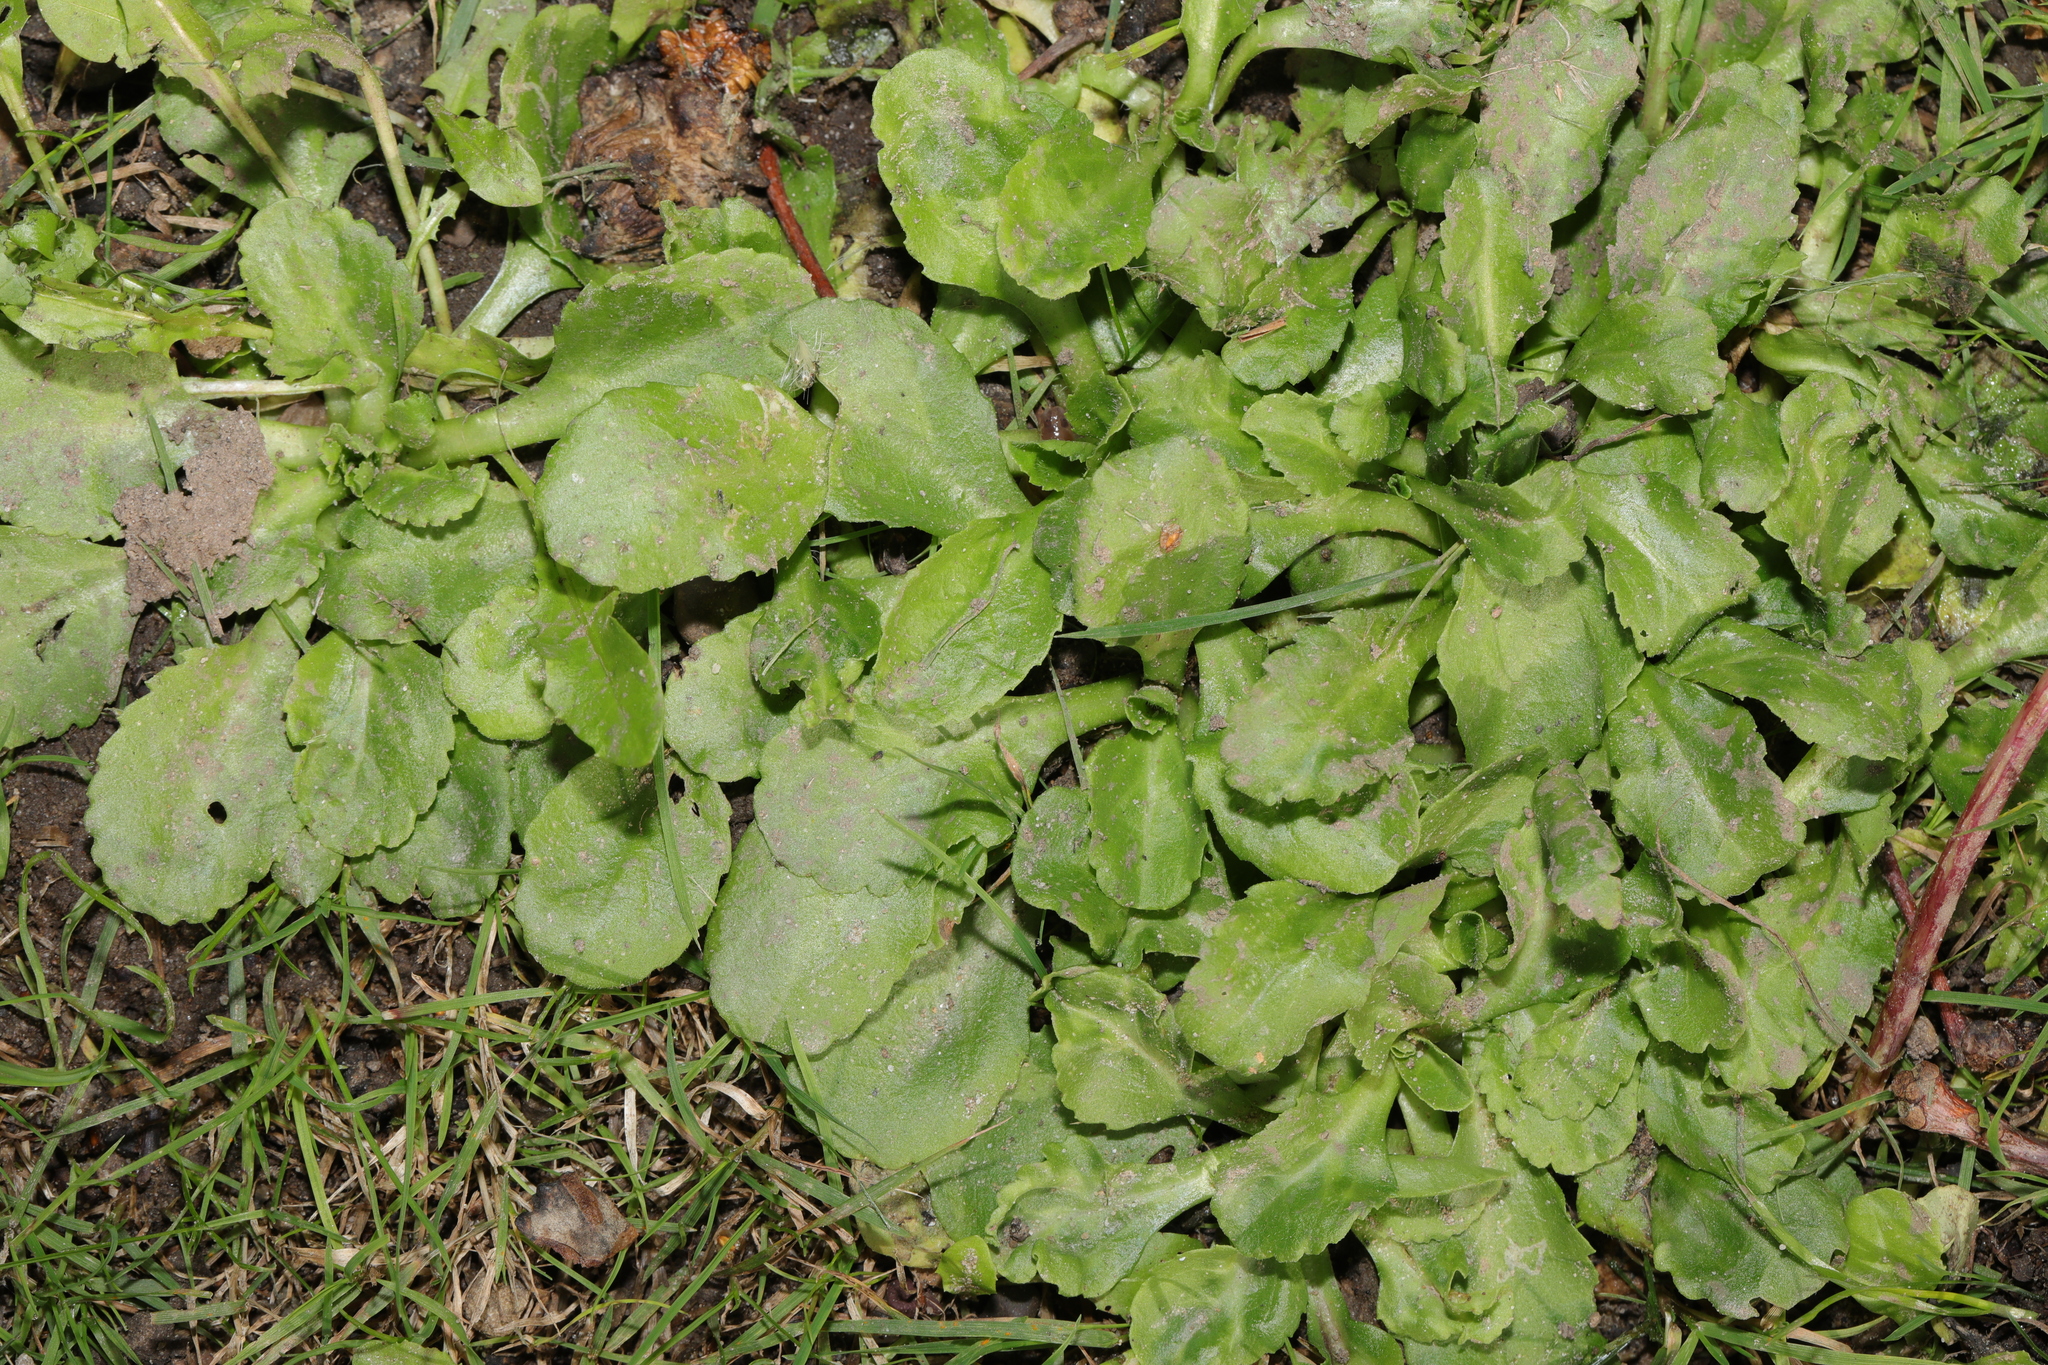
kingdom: Plantae
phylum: Tracheophyta
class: Magnoliopsida
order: Asterales
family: Asteraceae
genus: Bellis
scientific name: Bellis perennis
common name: Lawndaisy
